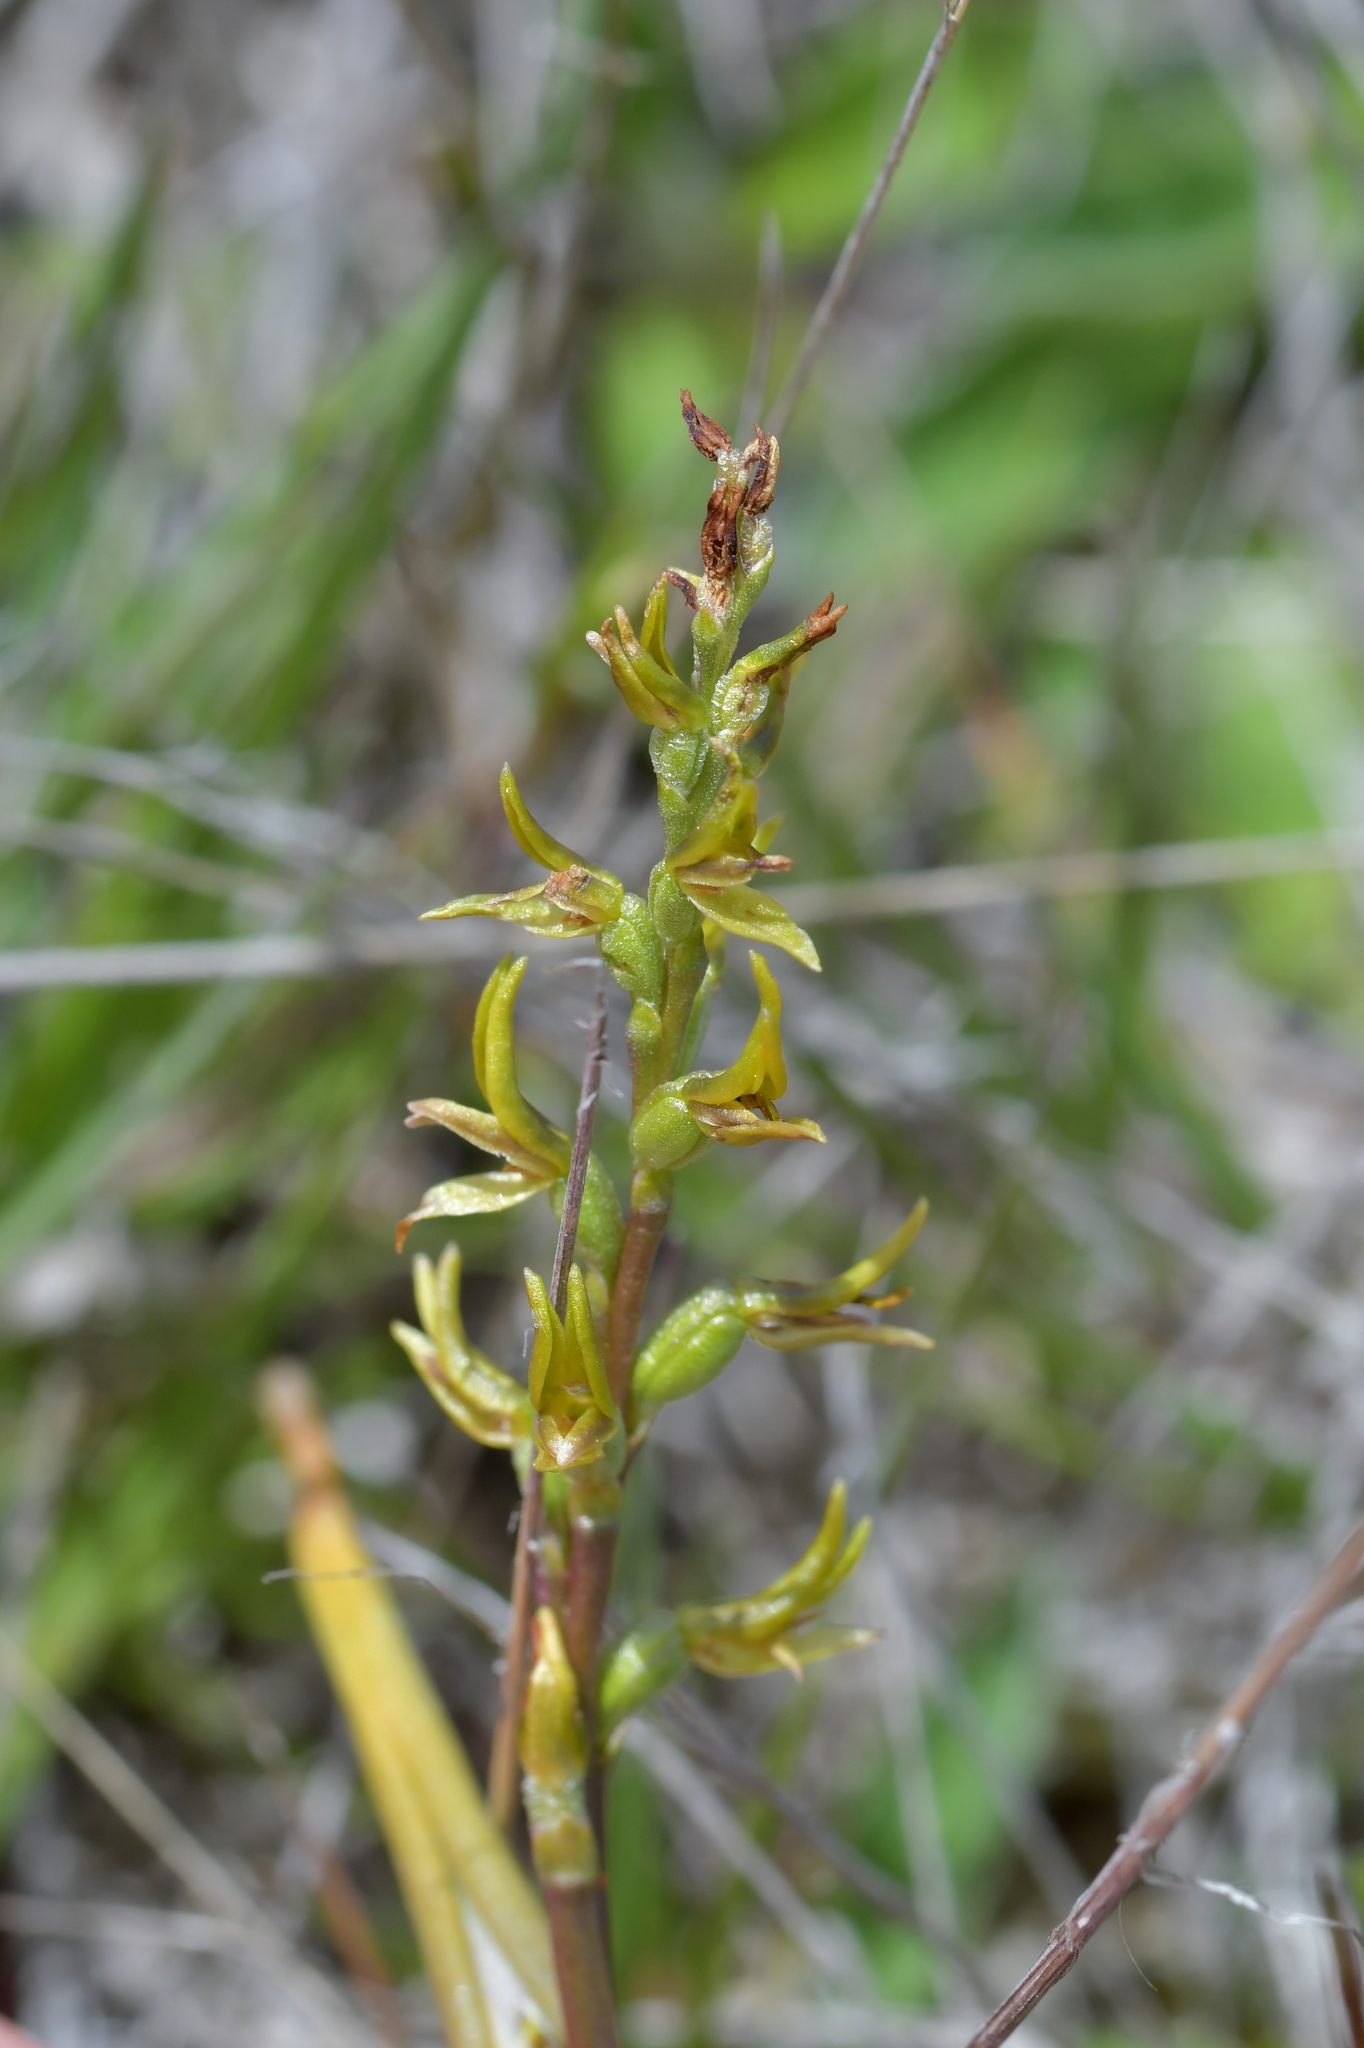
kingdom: Plantae
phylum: Tracheophyta
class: Liliopsida
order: Asparagales
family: Orchidaceae
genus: Prasophyllum
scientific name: Prasophyllum colensoi
